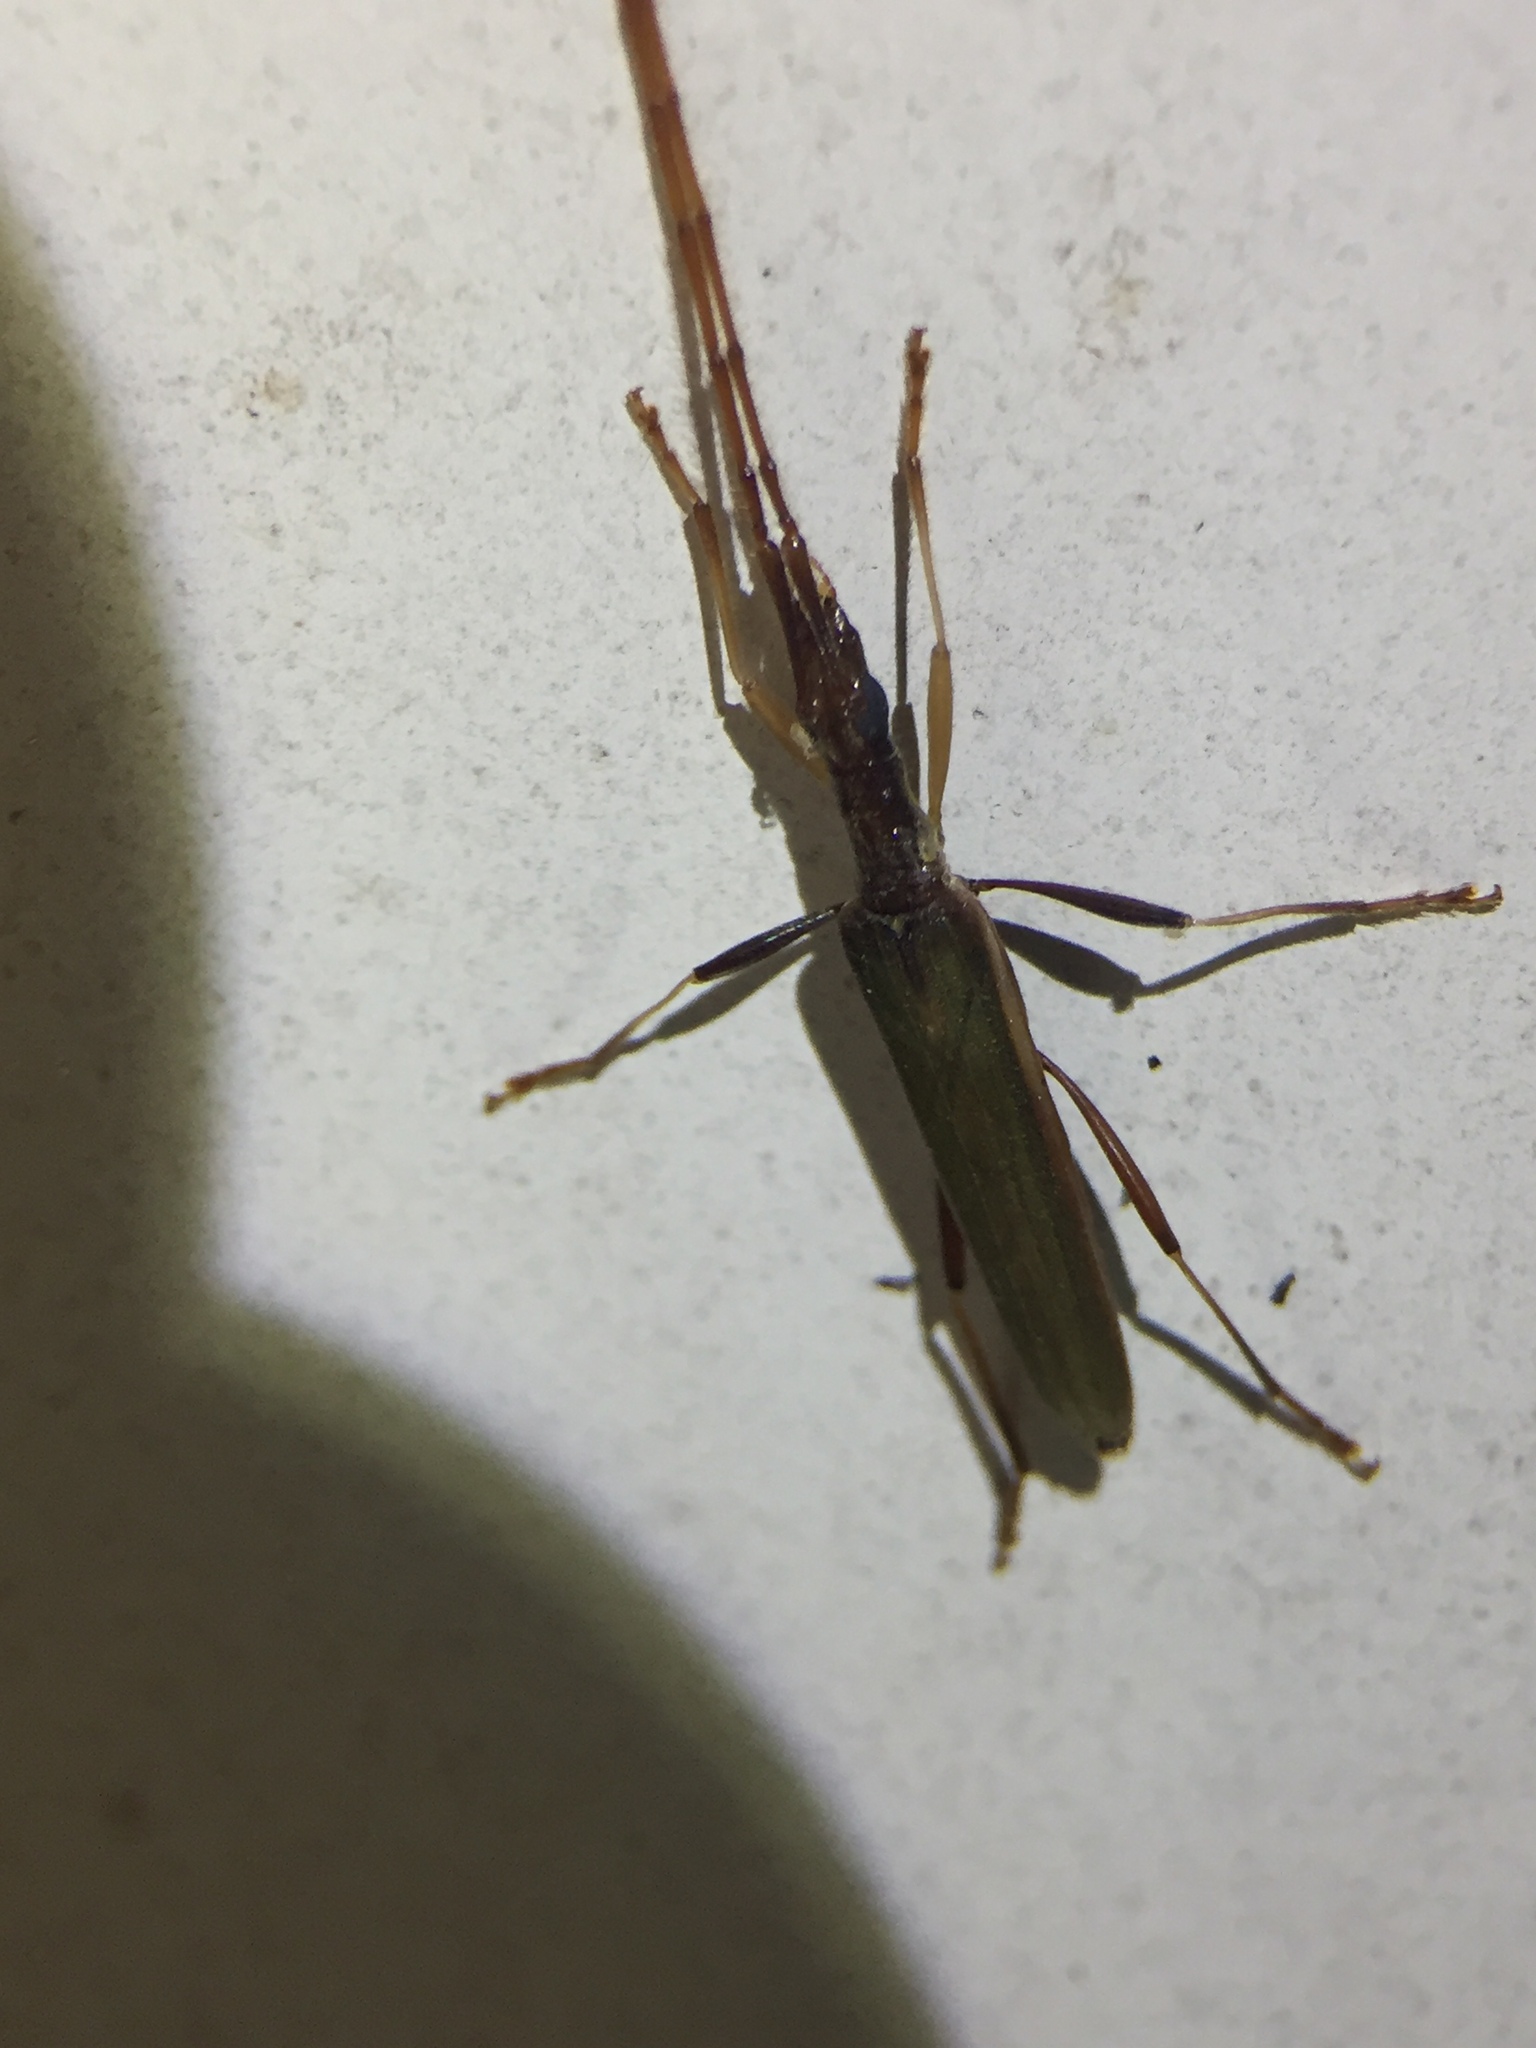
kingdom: Animalia
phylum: Arthropoda
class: Insecta
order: Coleoptera
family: Cerambycidae
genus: Stenopotes
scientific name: Stenopotes pallidus
